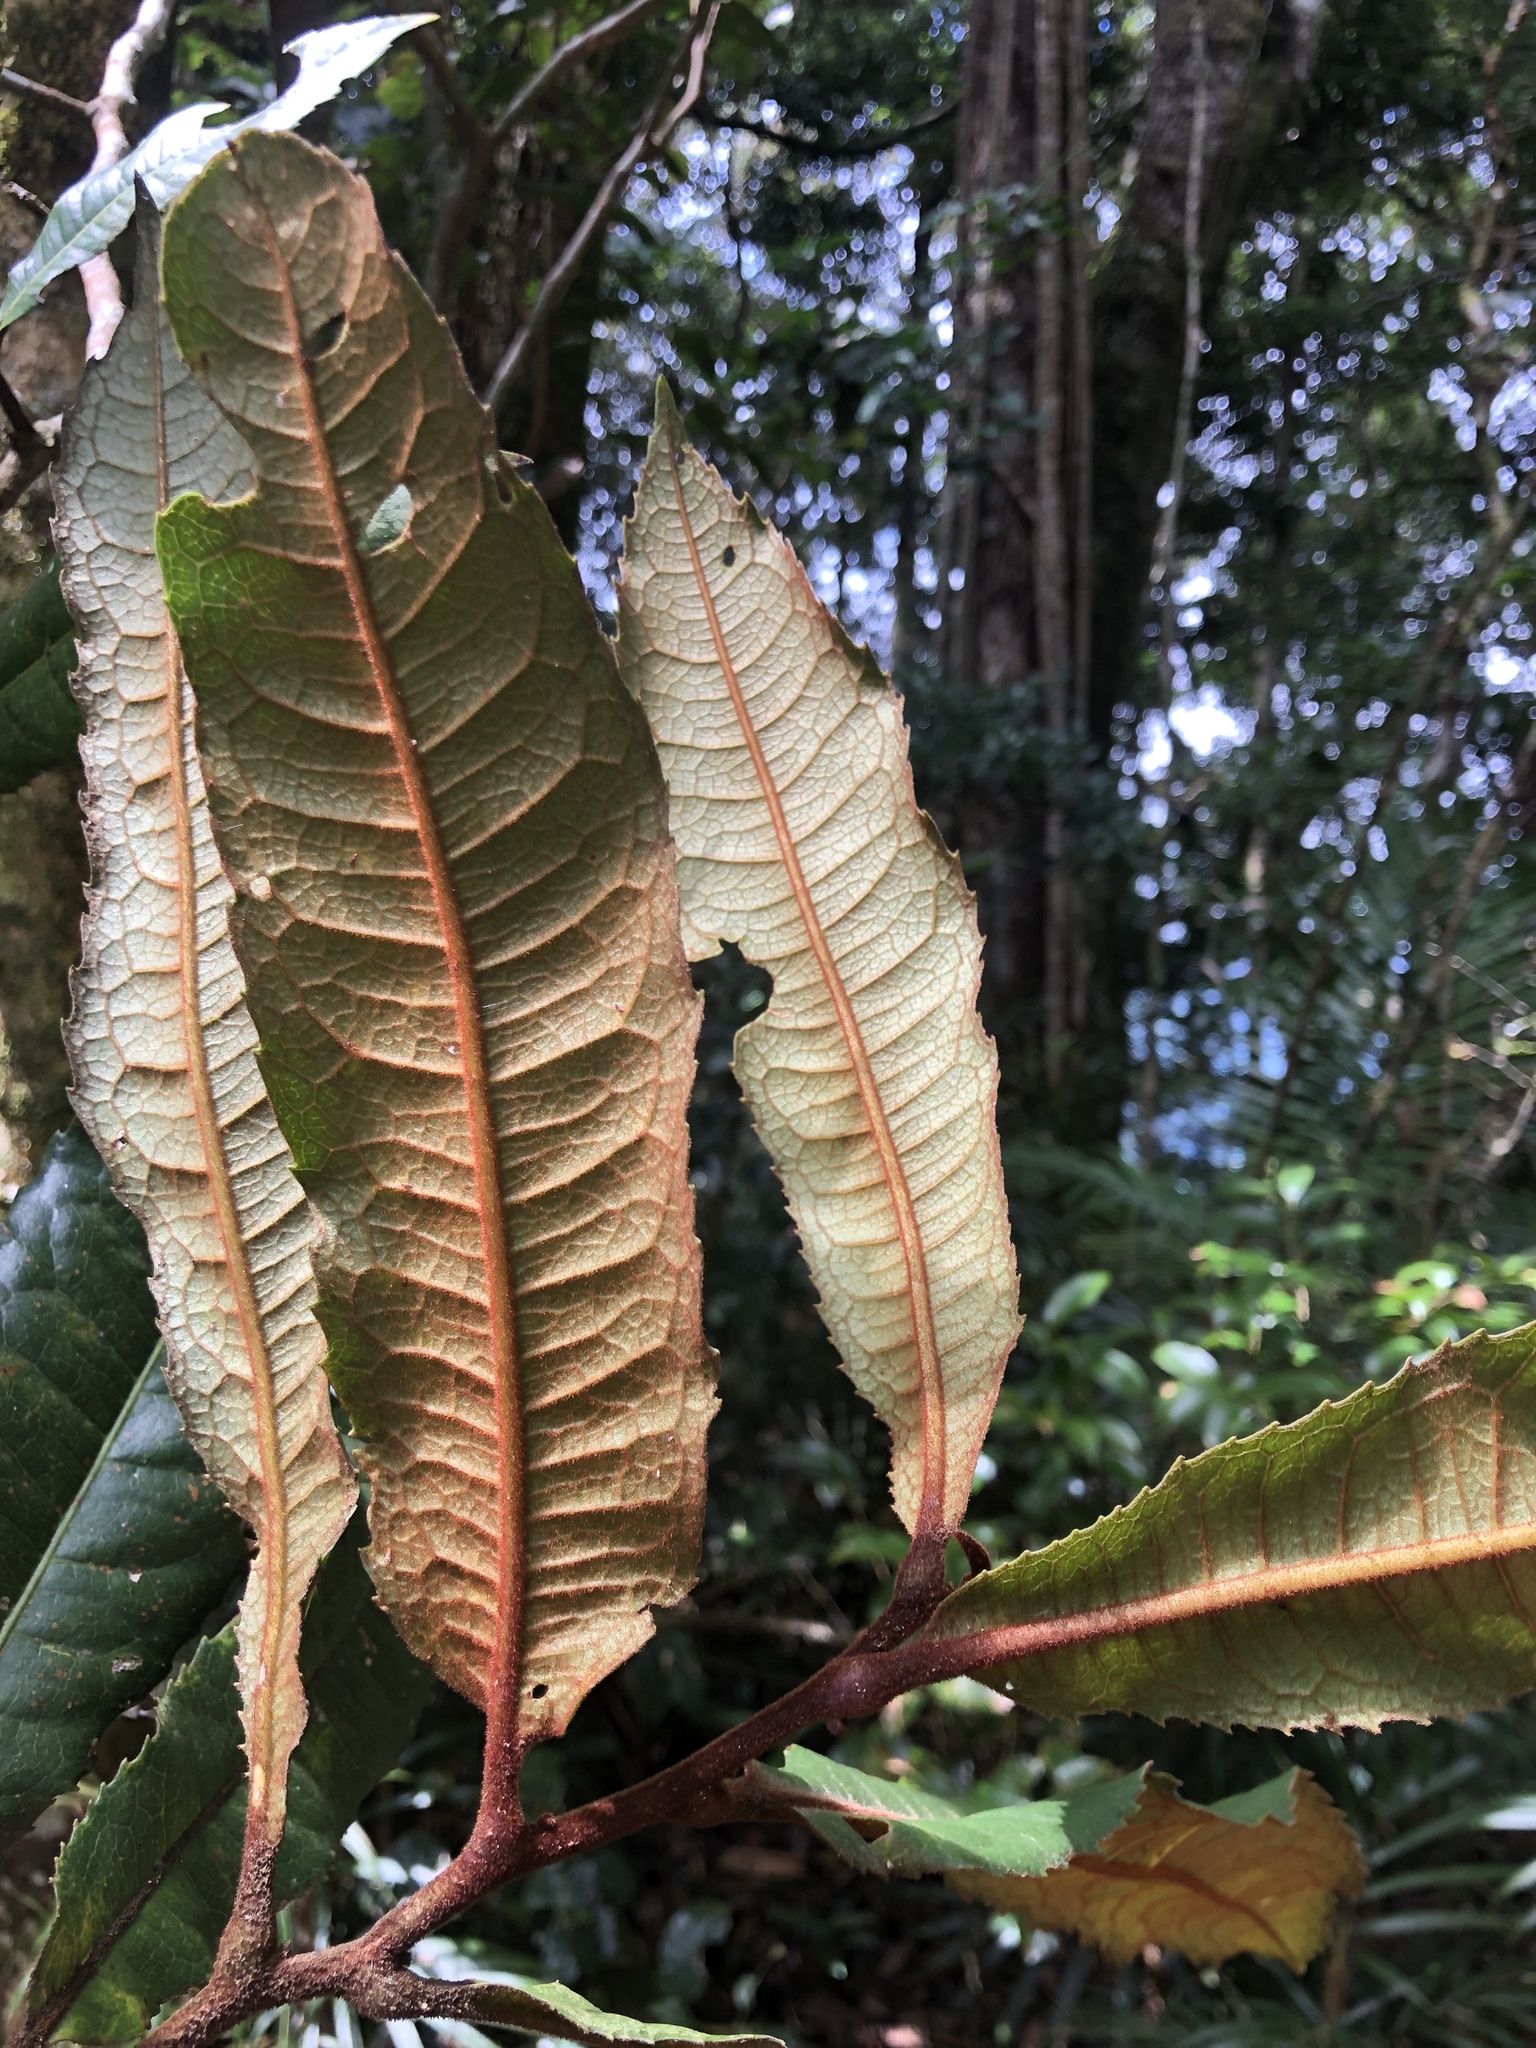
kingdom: Plantae
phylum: Tracheophyta
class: Magnoliopsida
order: Proteales
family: Proteaceae
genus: Helicia
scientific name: Helicia ferruginea
